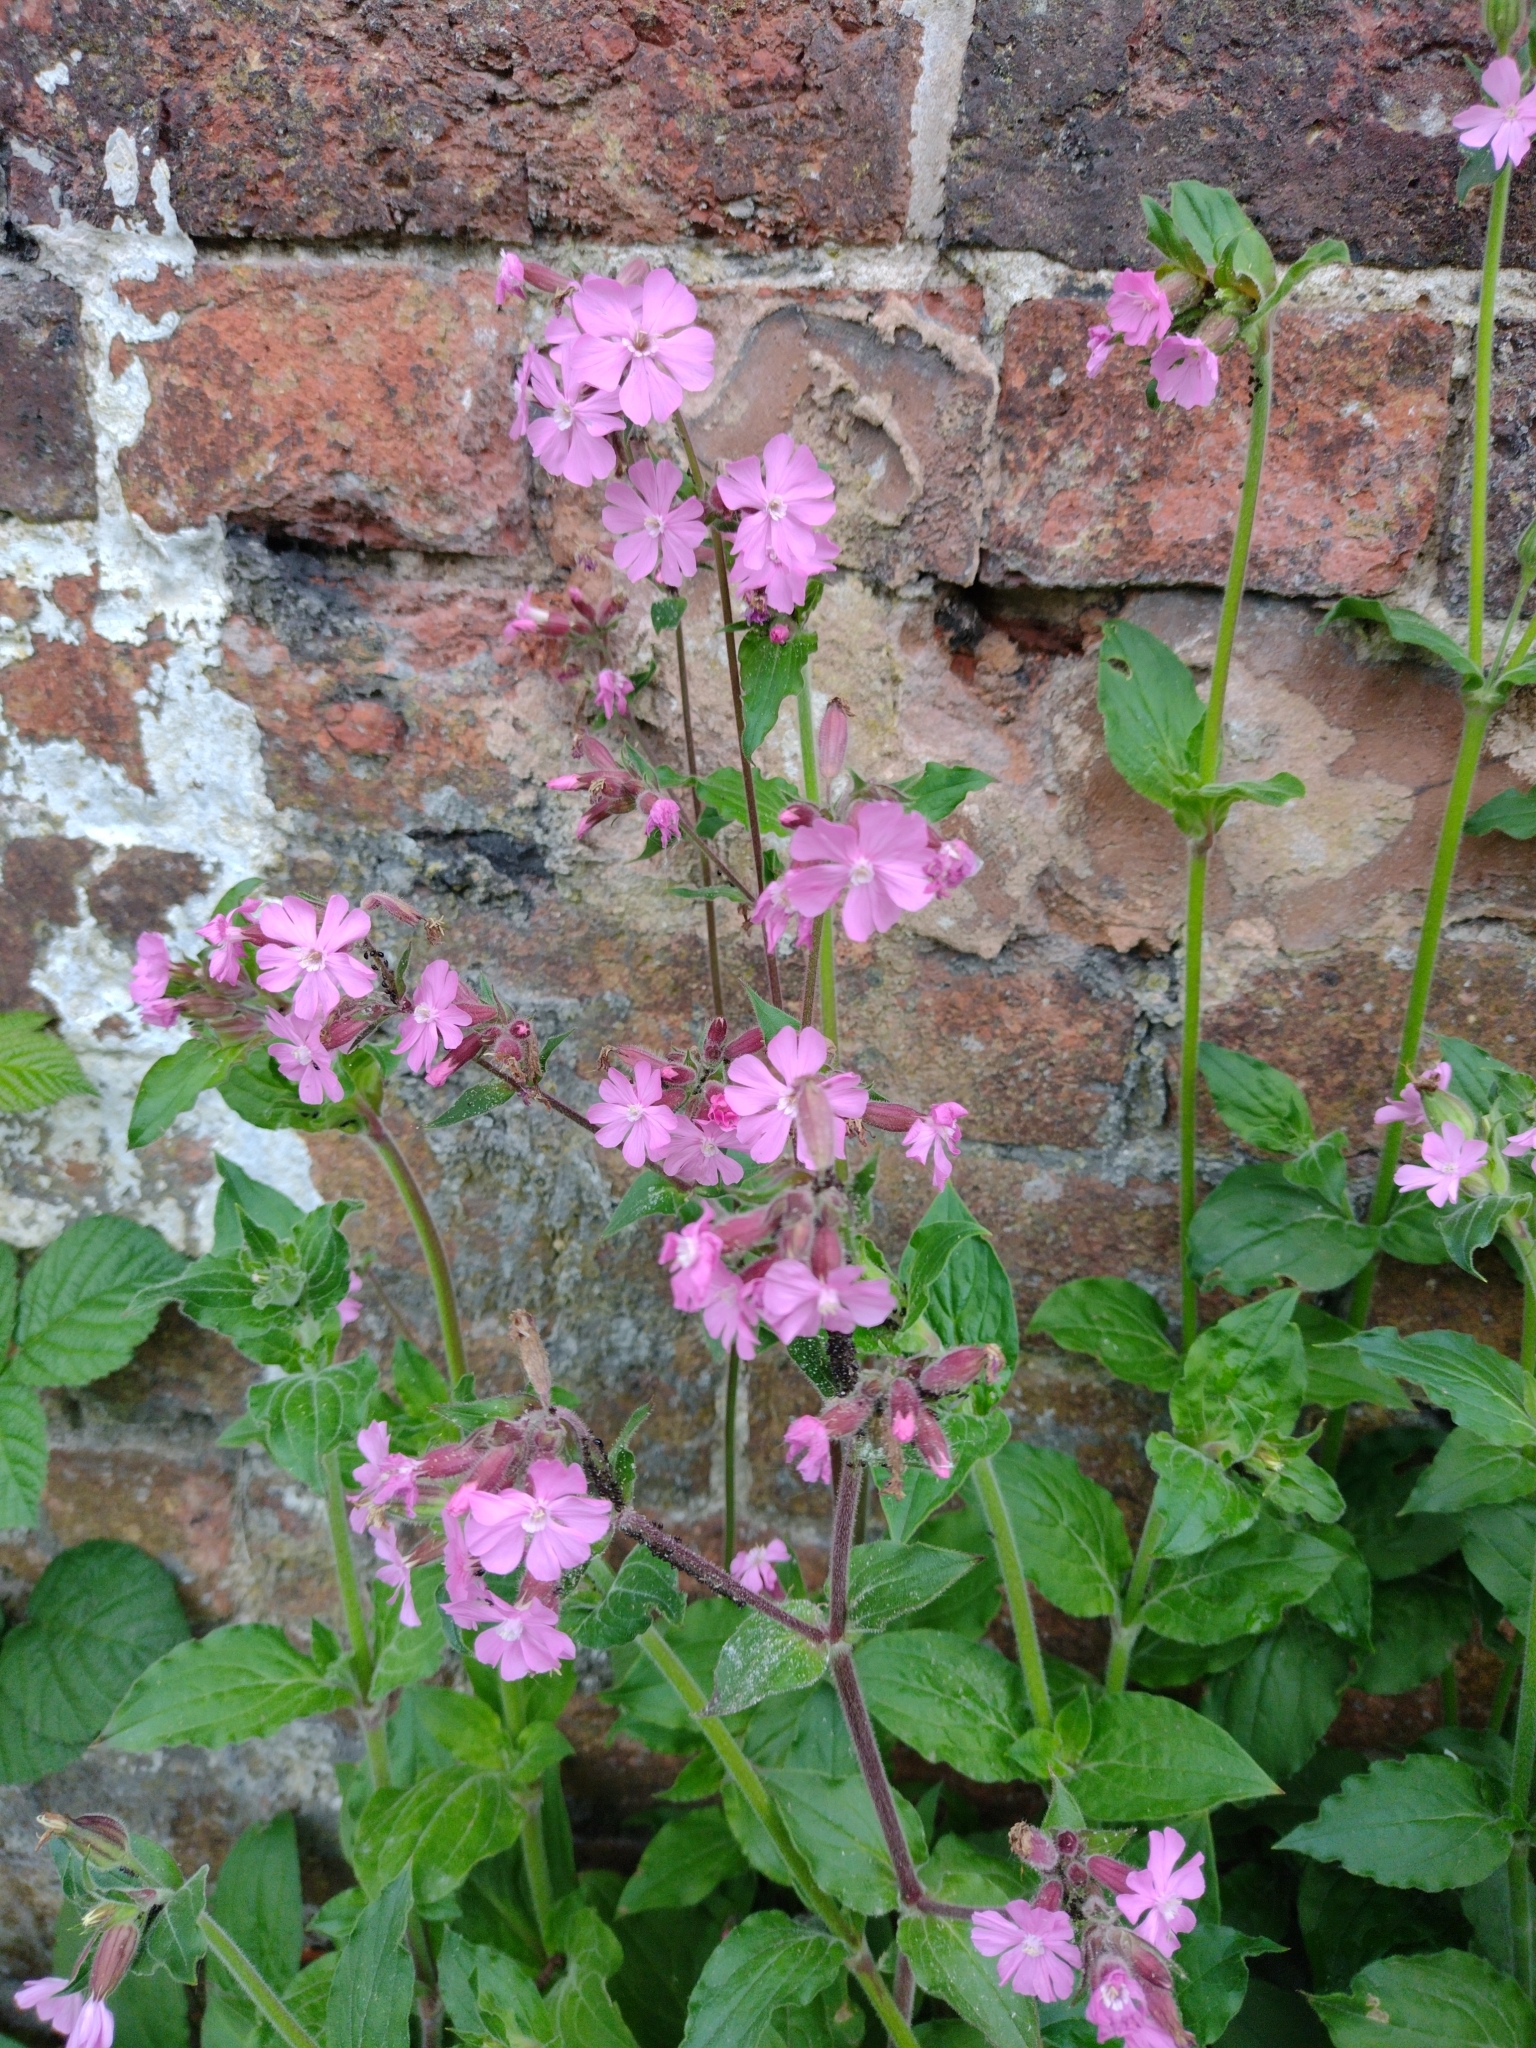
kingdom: Plantae
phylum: Tracheophyta
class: Magnoliopsida
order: Caryophyllales
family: Caryophyllaceae
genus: Silene
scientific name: Silene dioica
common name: Red campion
